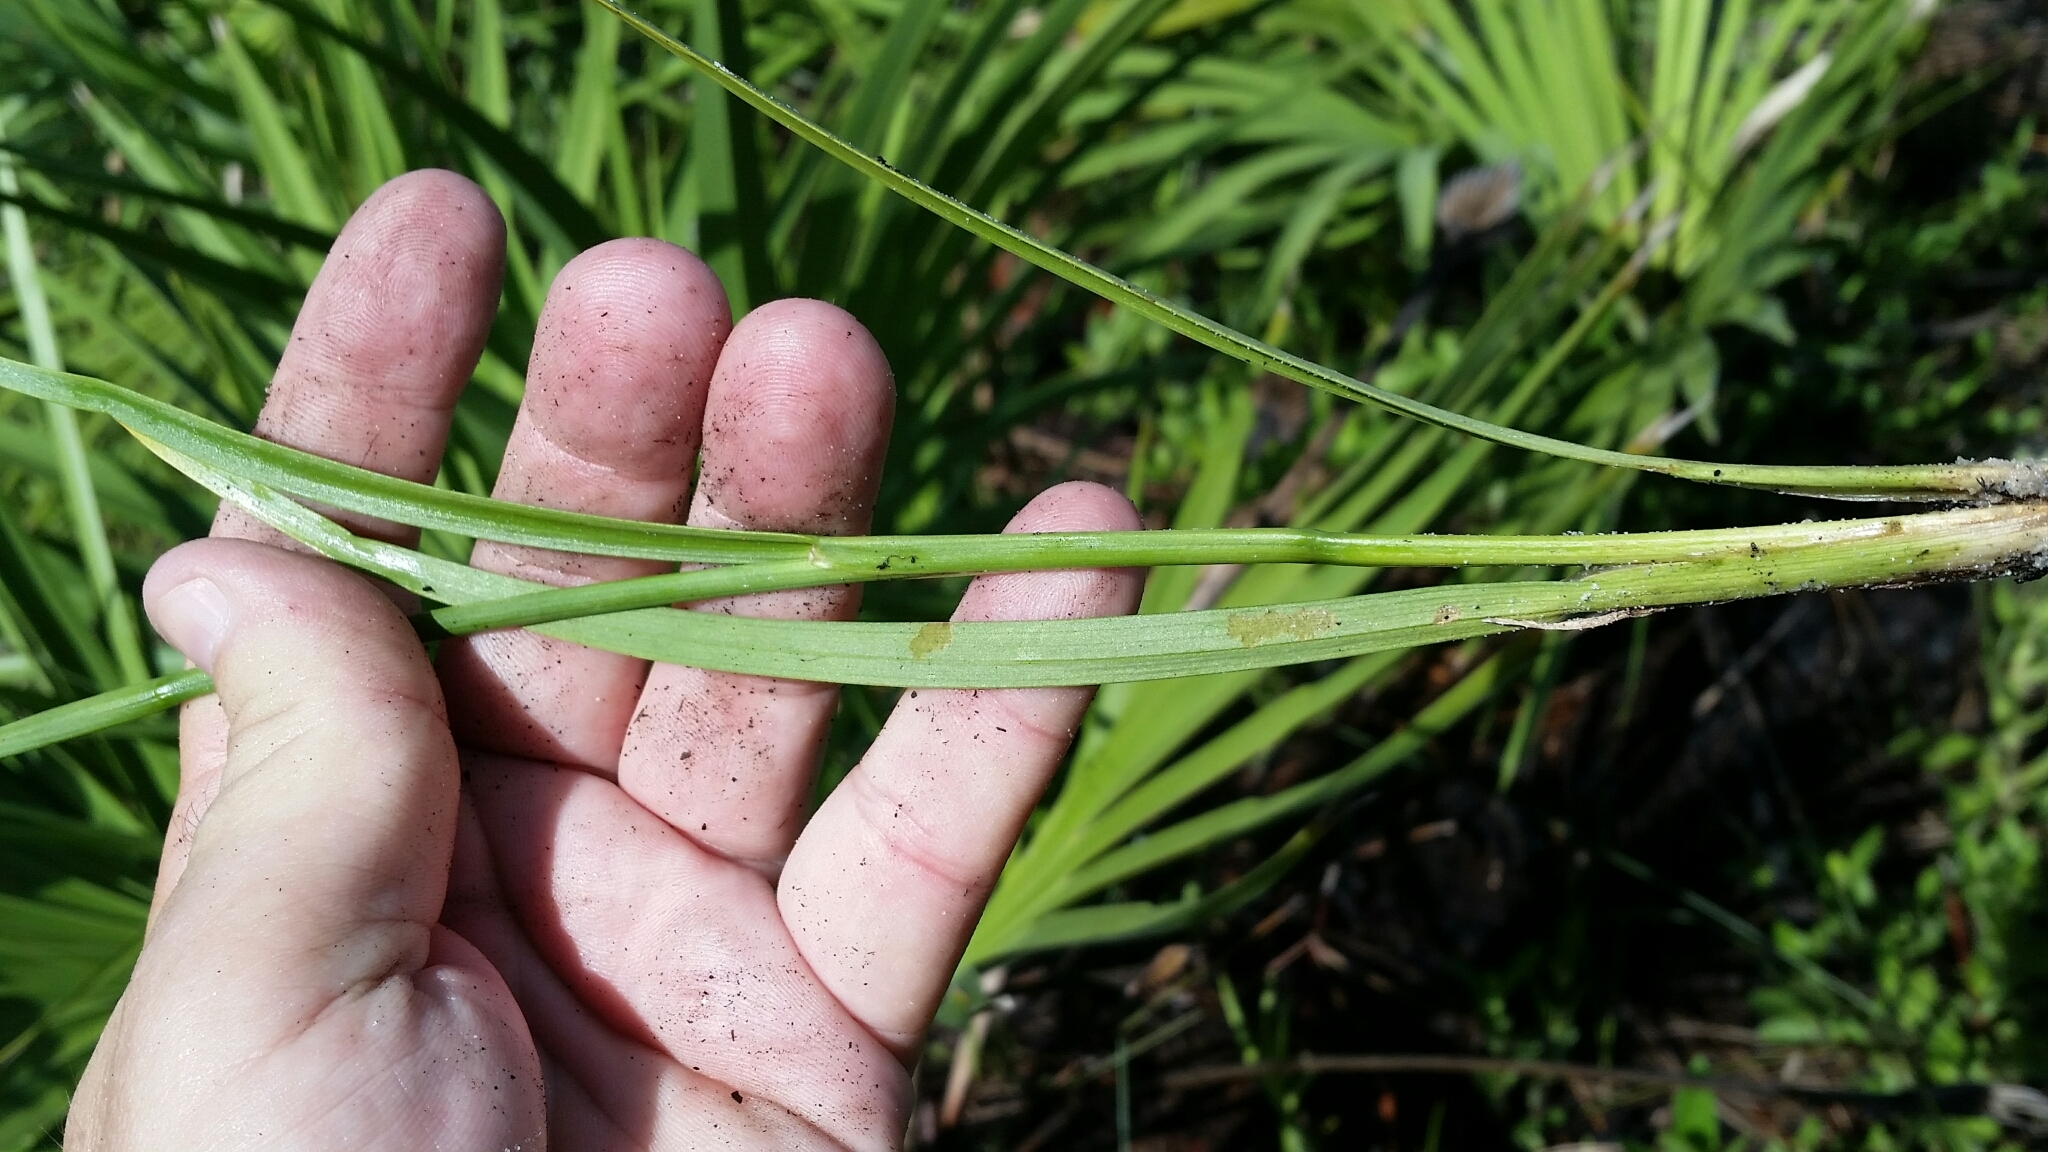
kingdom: Plantae
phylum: Tracheophyta
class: Liliopsida
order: Poales
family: Juncaceae
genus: Juncus
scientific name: Juncus biflorus
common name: Two-flowered rush
